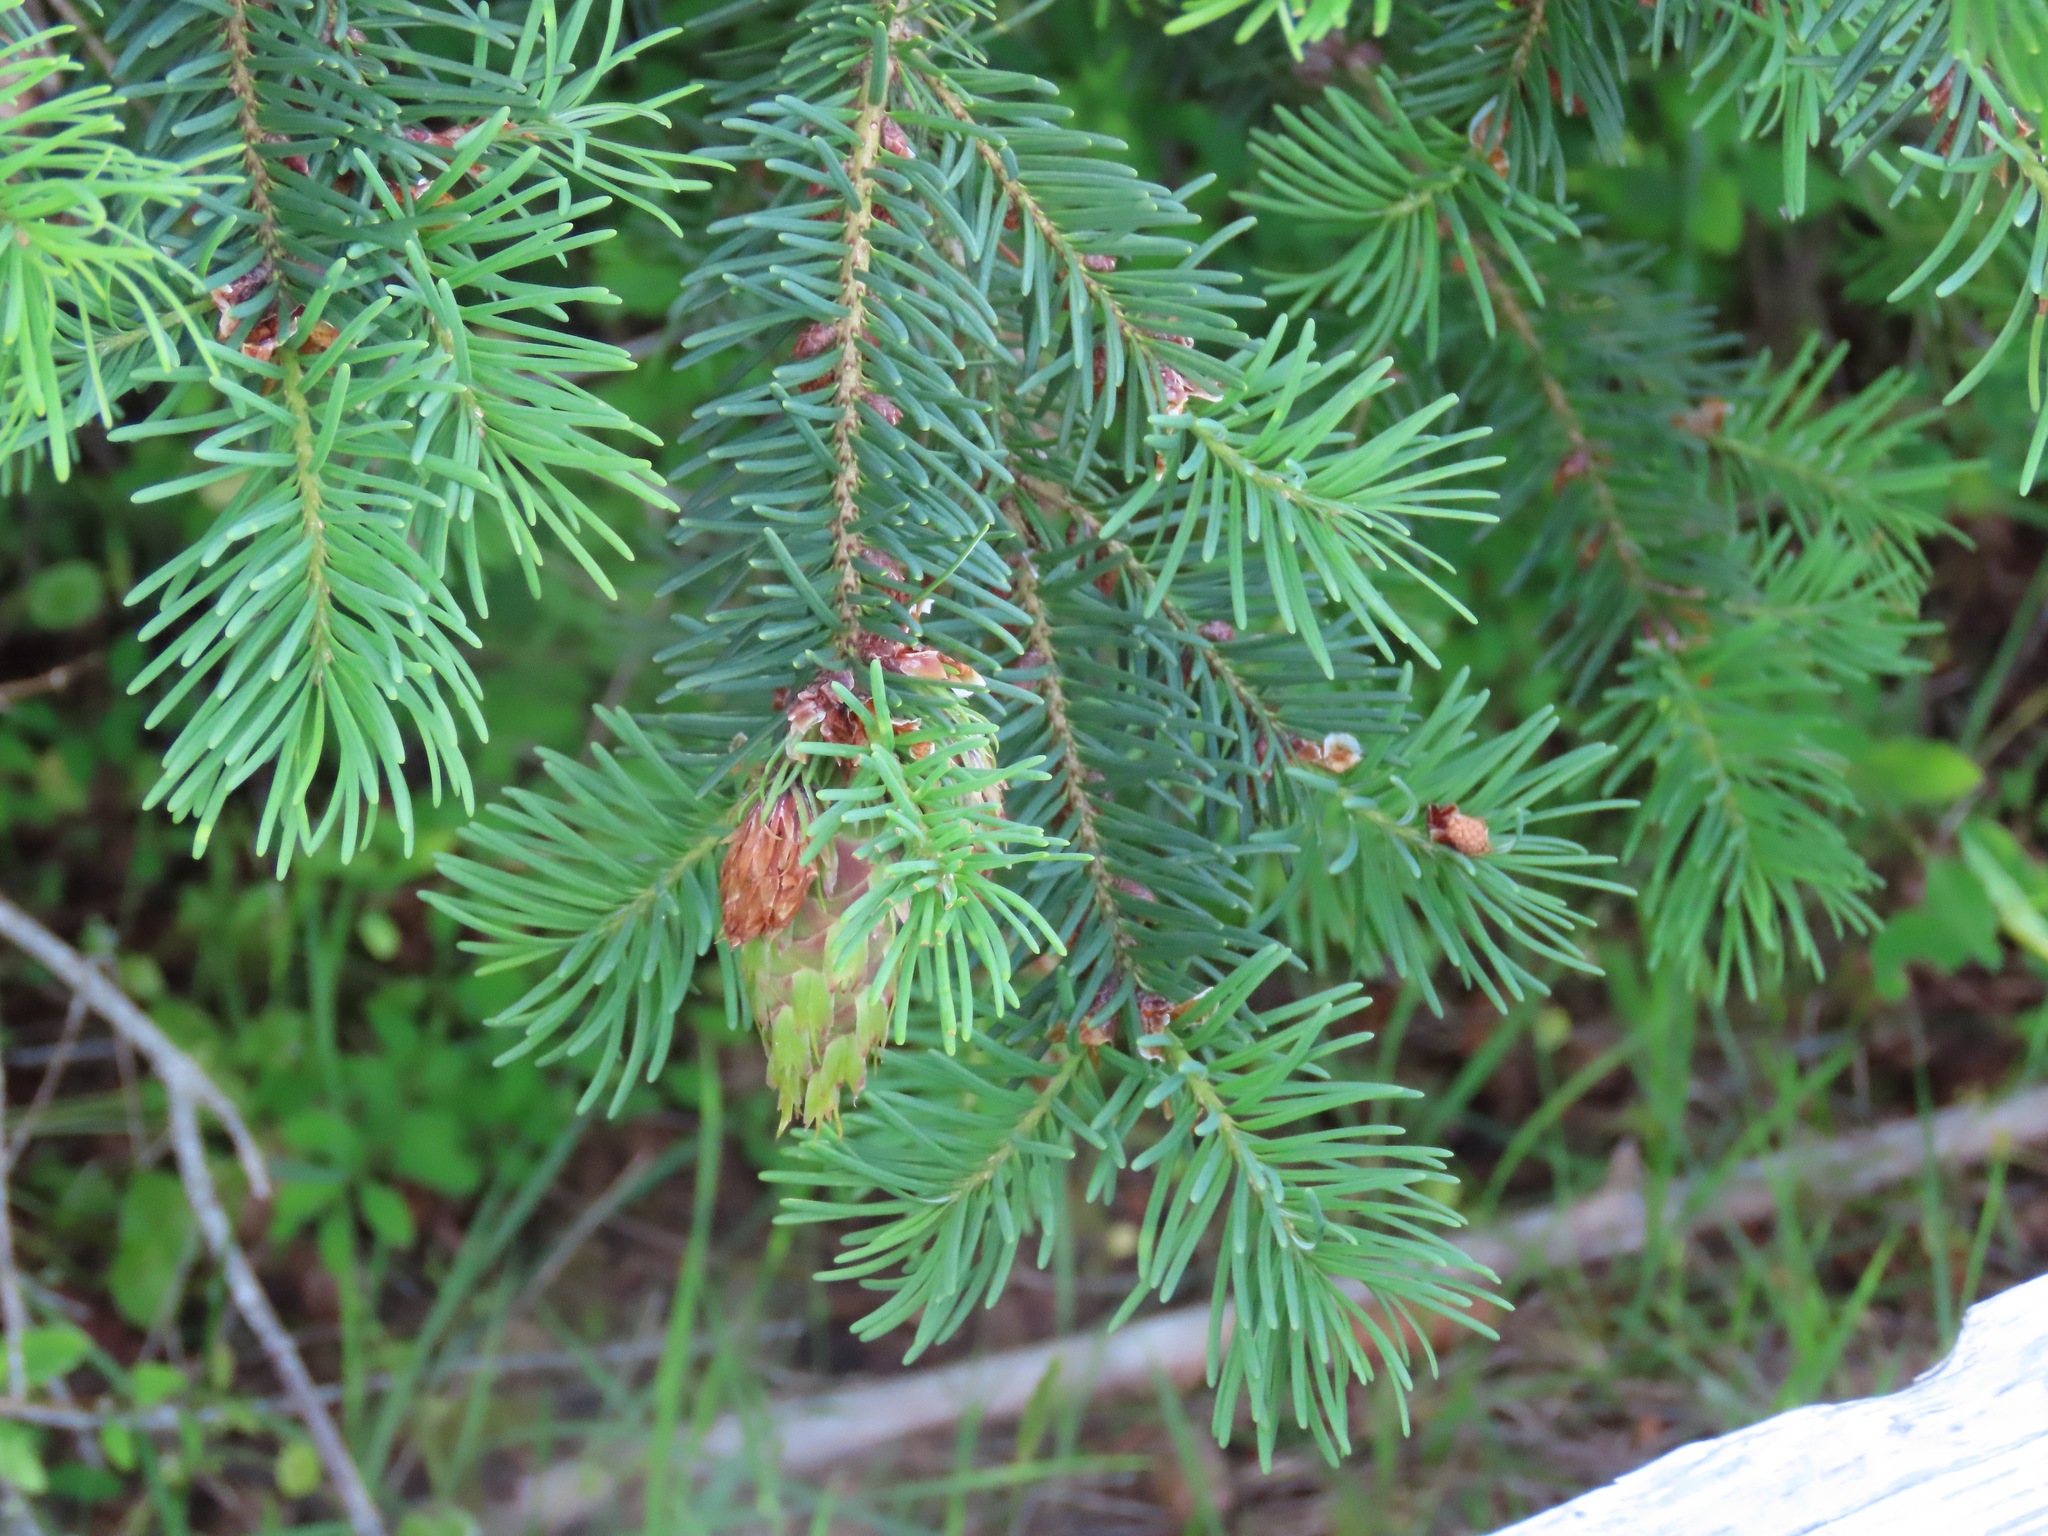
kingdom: Plantae
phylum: Tracheophyta
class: Pinopsida
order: Pinales
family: Pinaceae
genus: Pseudotsuga
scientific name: Pseudotsuga menziesii
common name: Douglas fir
